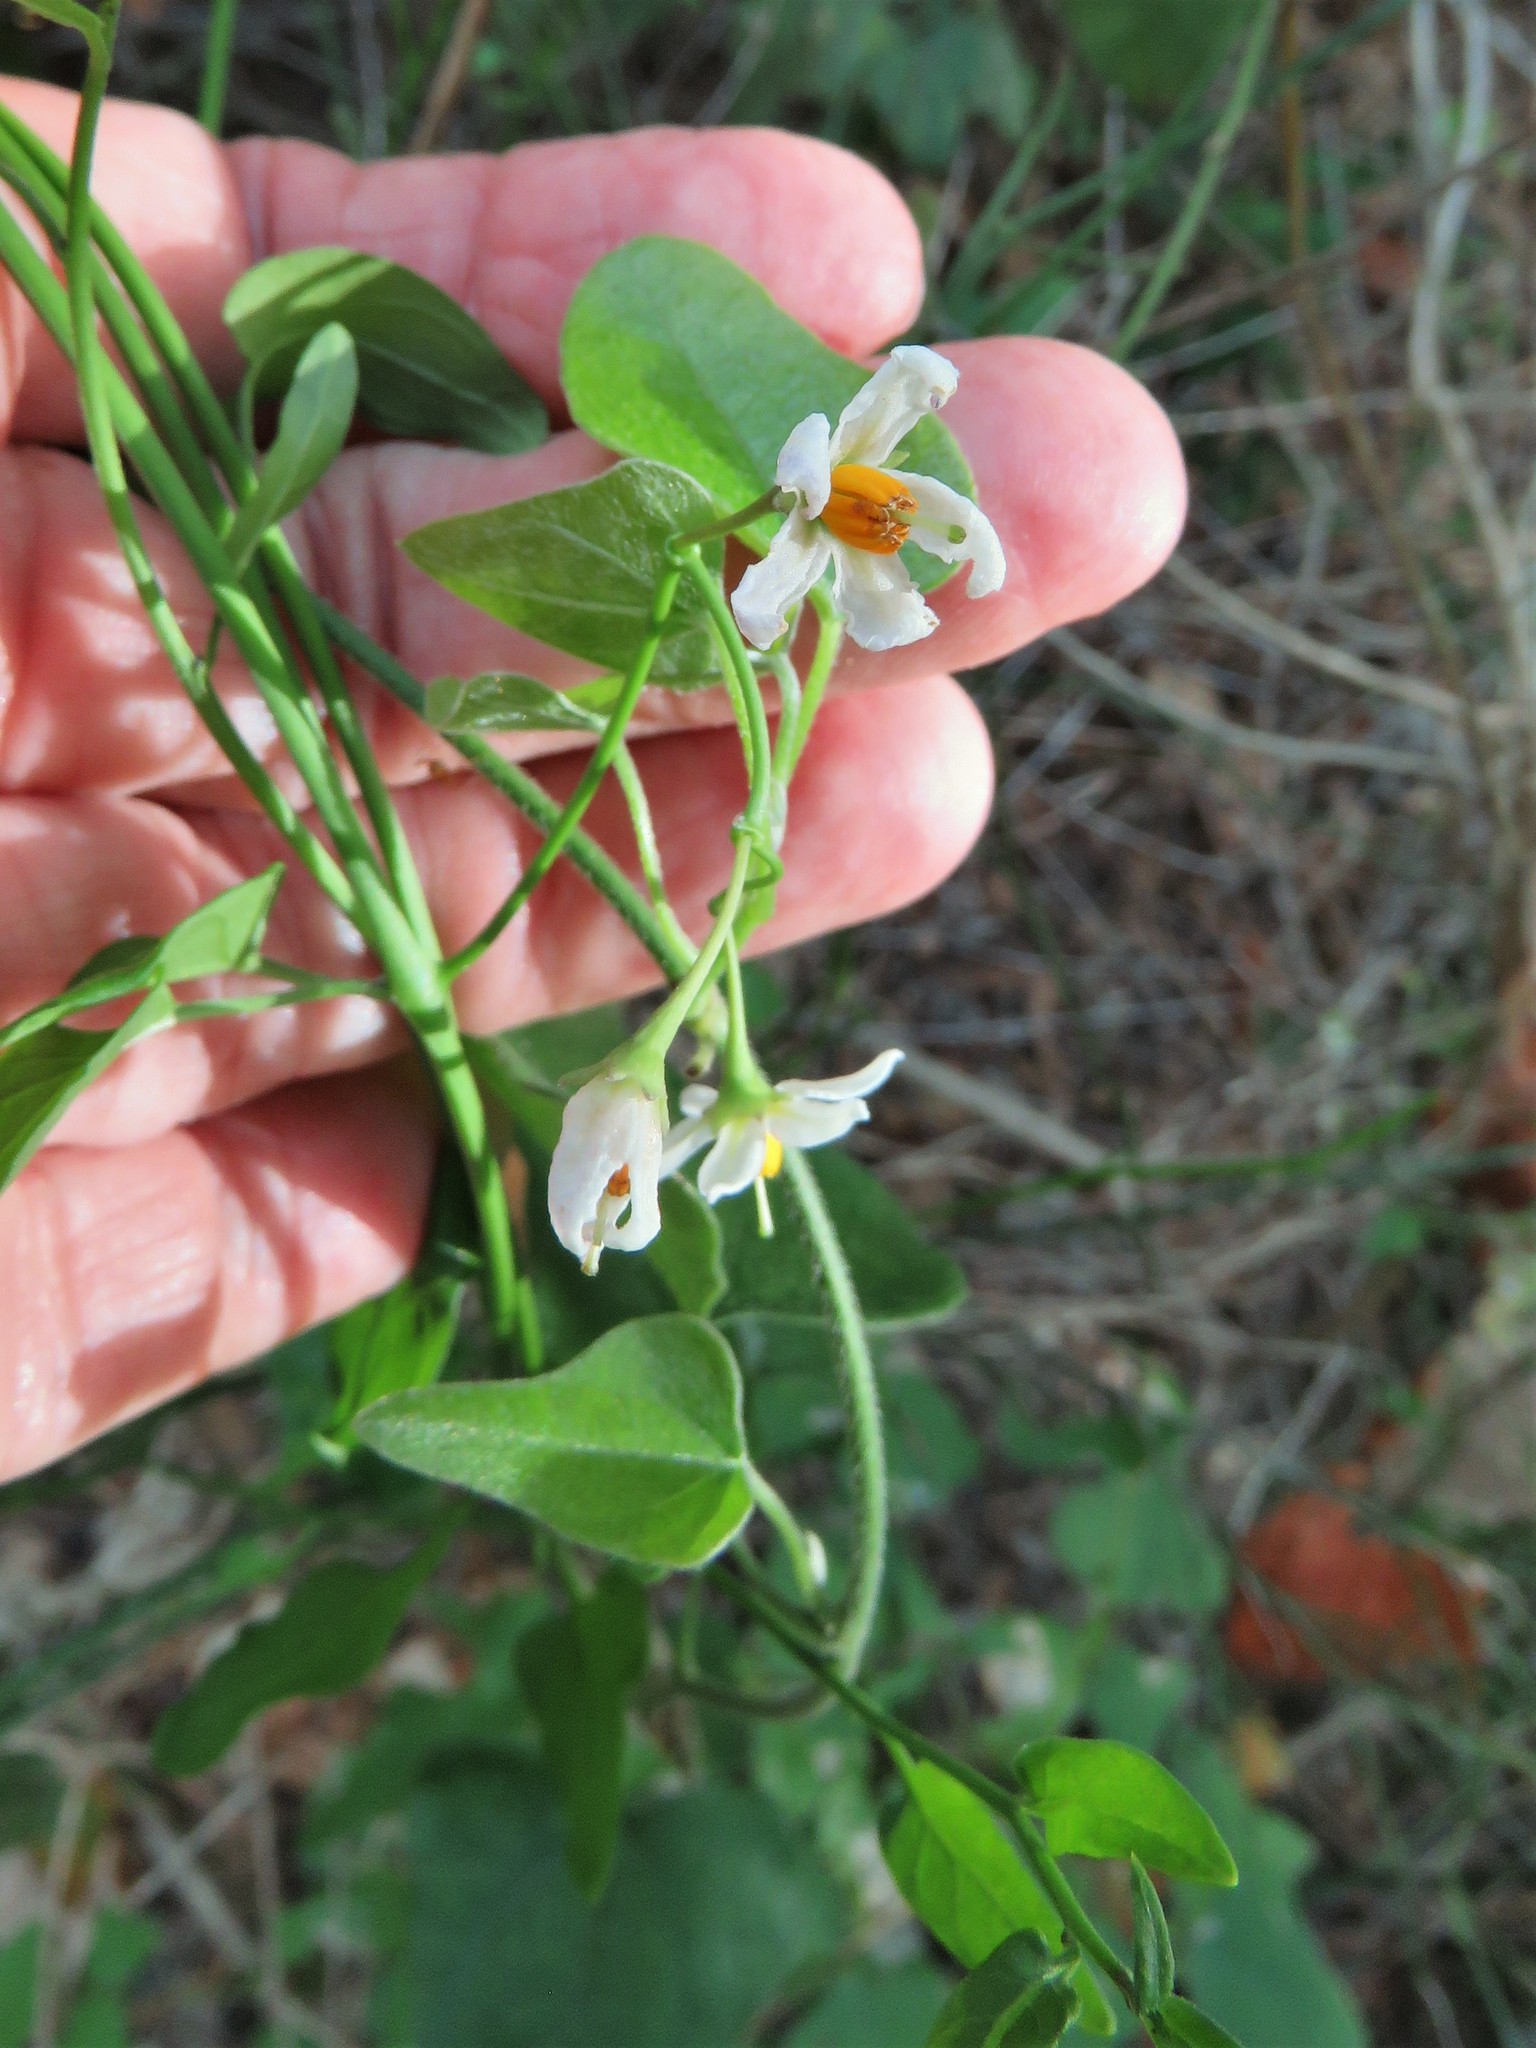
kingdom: Plantae
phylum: Tracheophyta
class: Magnoliopsida
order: Solanales
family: Solanaceae
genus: Solanum
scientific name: Solanum triquetrum
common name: Texas nightshade
